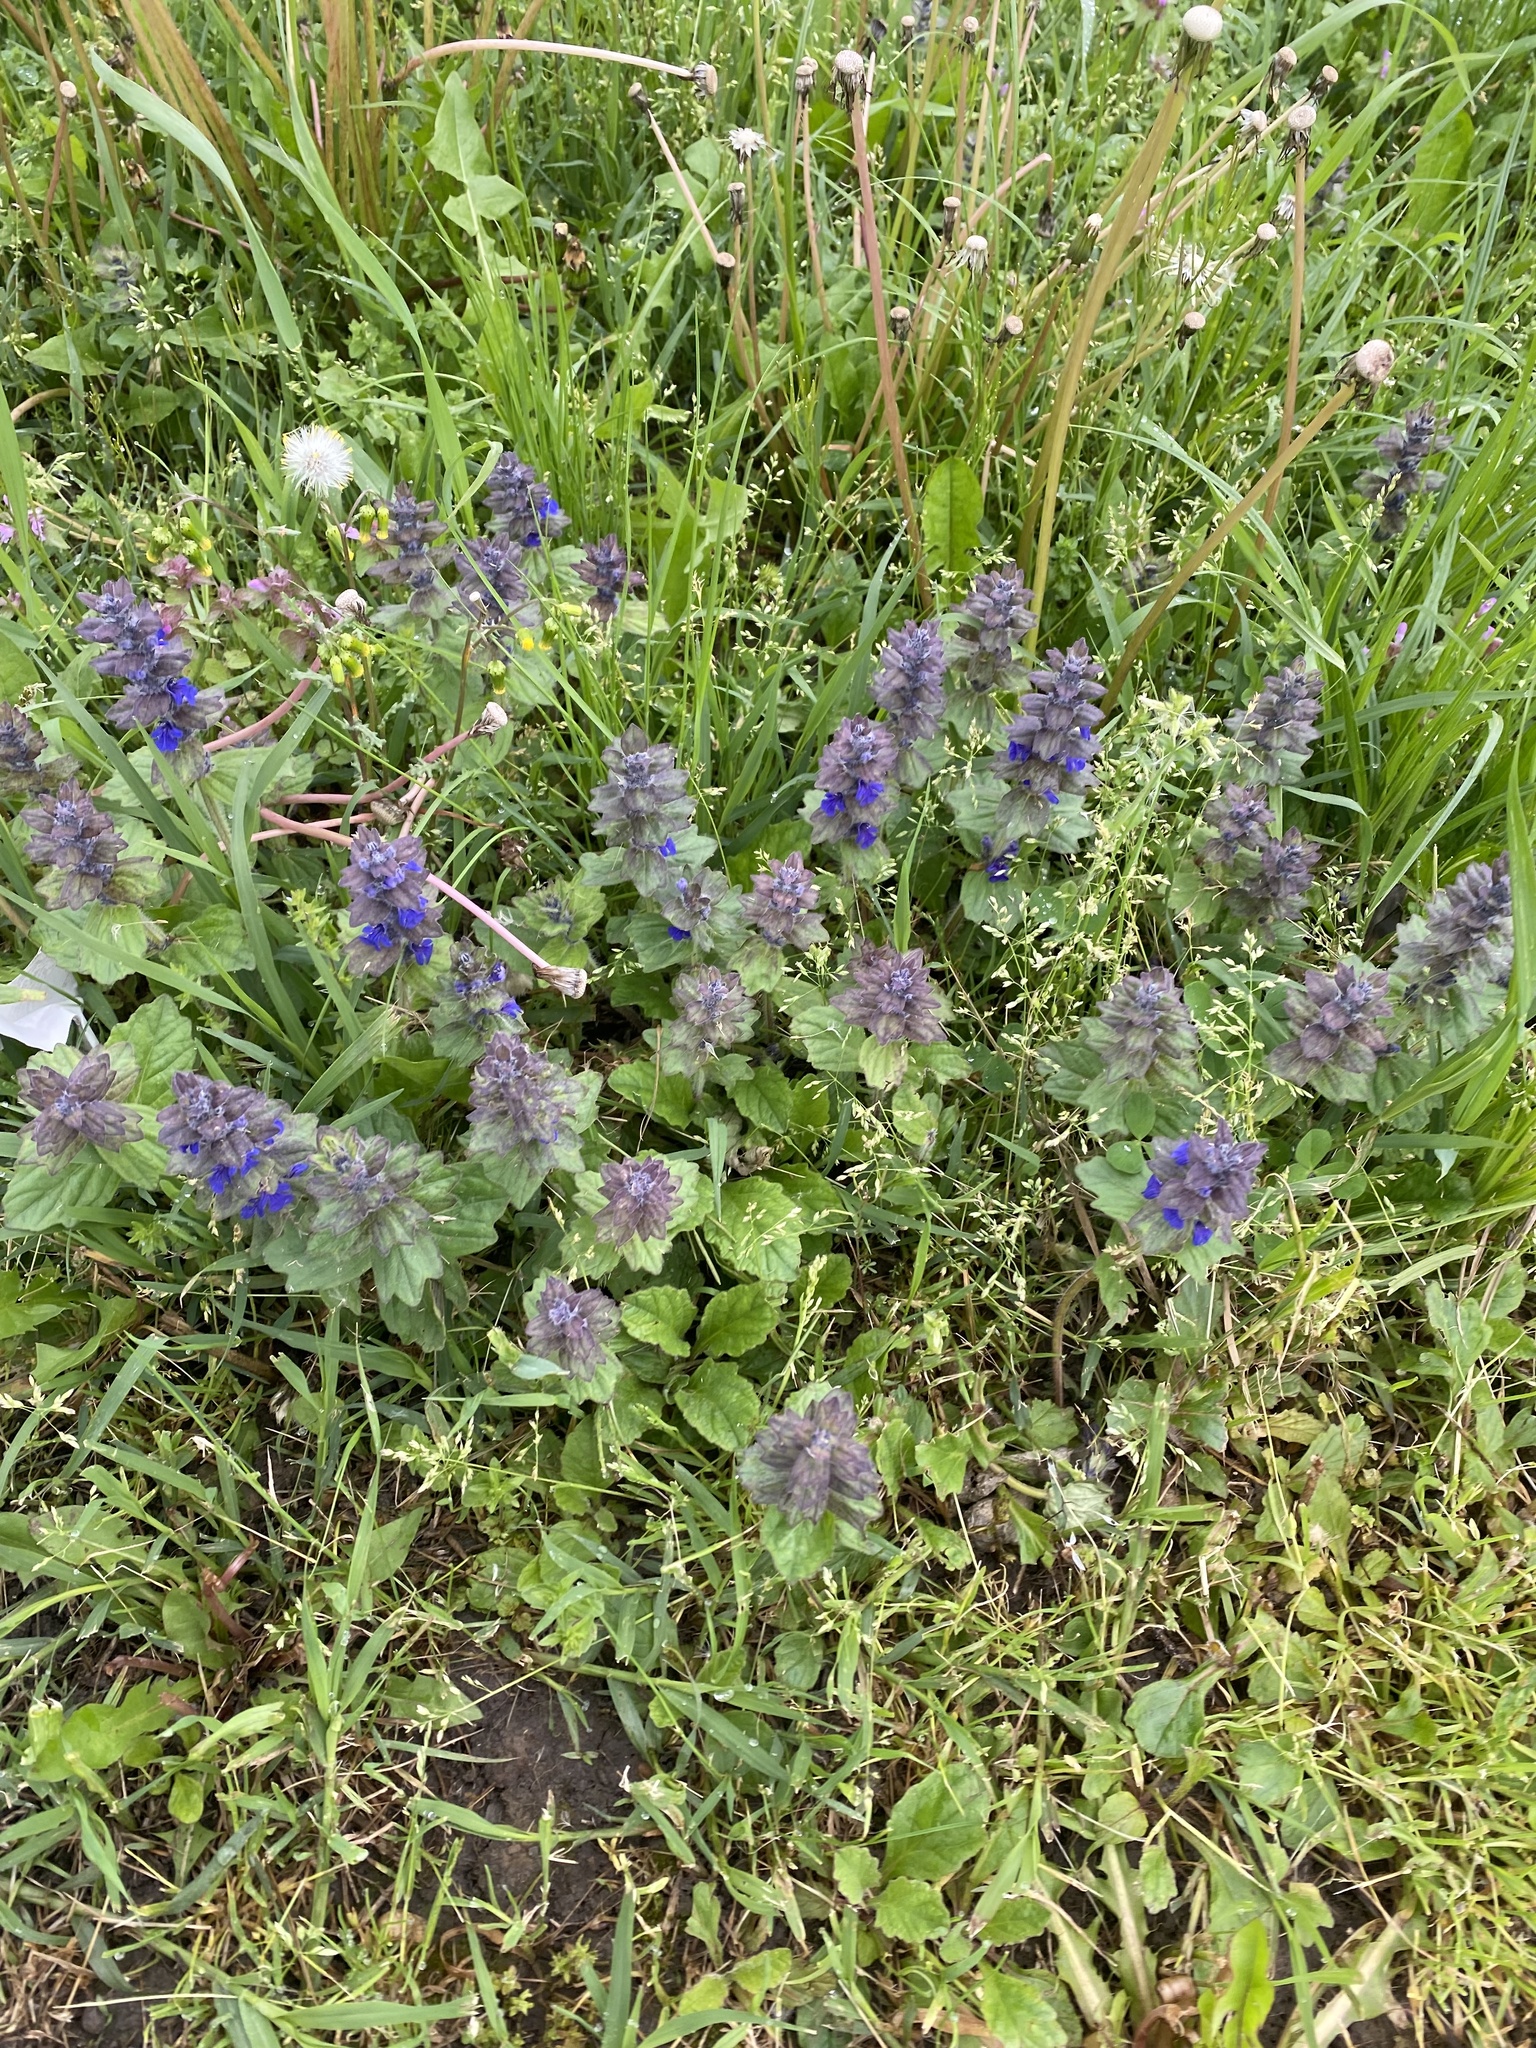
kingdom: Plantae
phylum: Tracheophyta
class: Magnoliopsida
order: Lamiales
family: Lamiaceae
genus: Ajuga
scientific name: Ajuga genevensis
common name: Blue bugle
